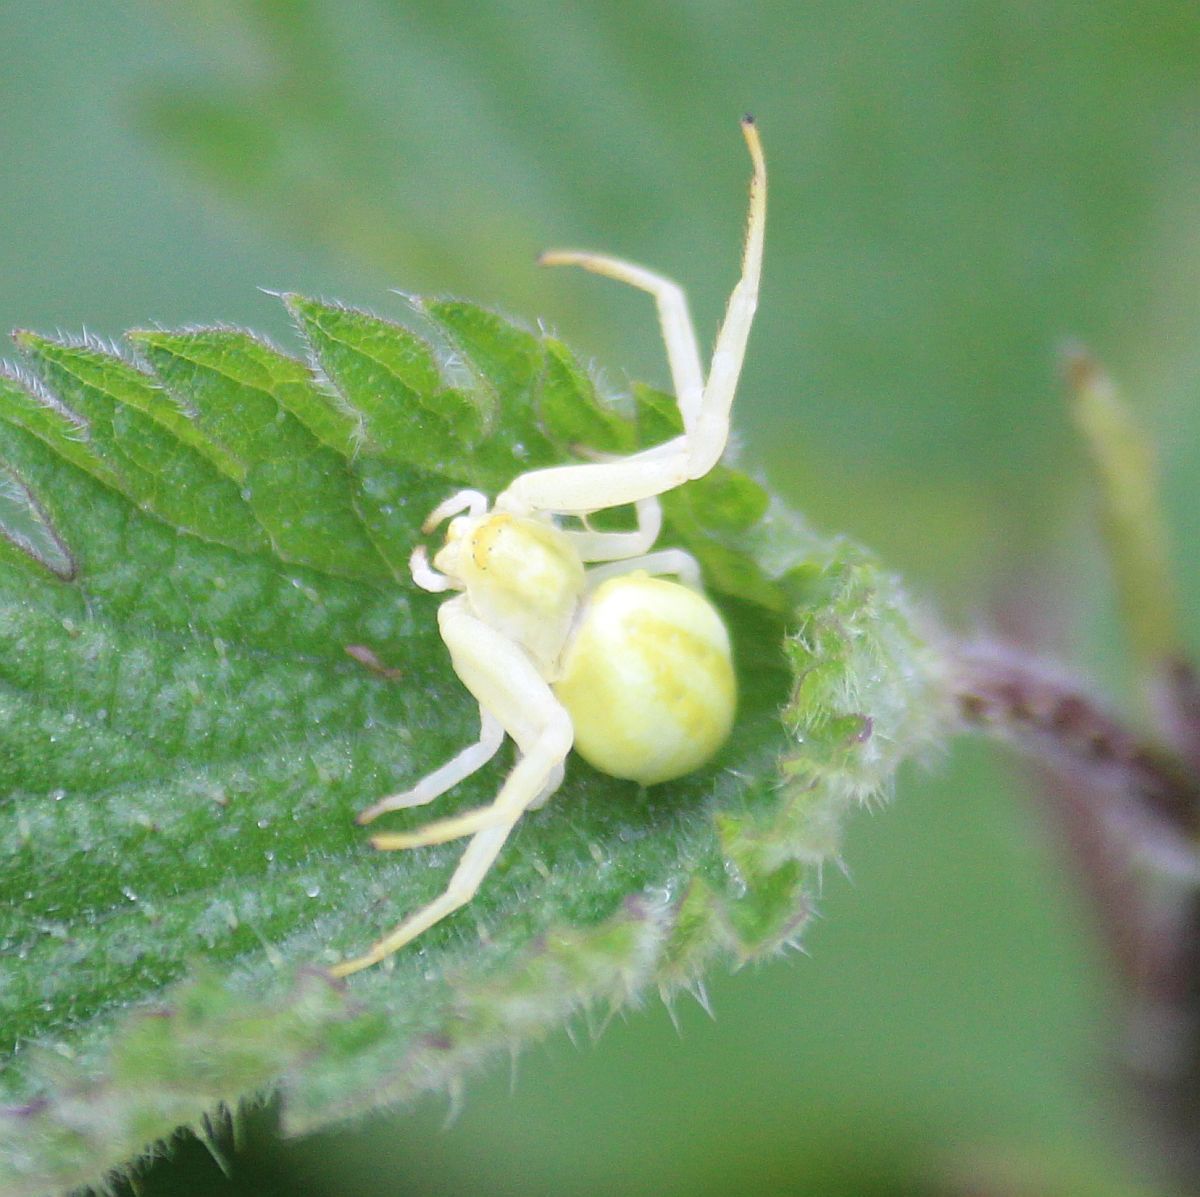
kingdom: Animalia
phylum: Arthropoda
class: Arachnida
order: Araneae
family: Thomisidae
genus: Misumena
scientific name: Misumena vatia
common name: Goldenrod crab spider
